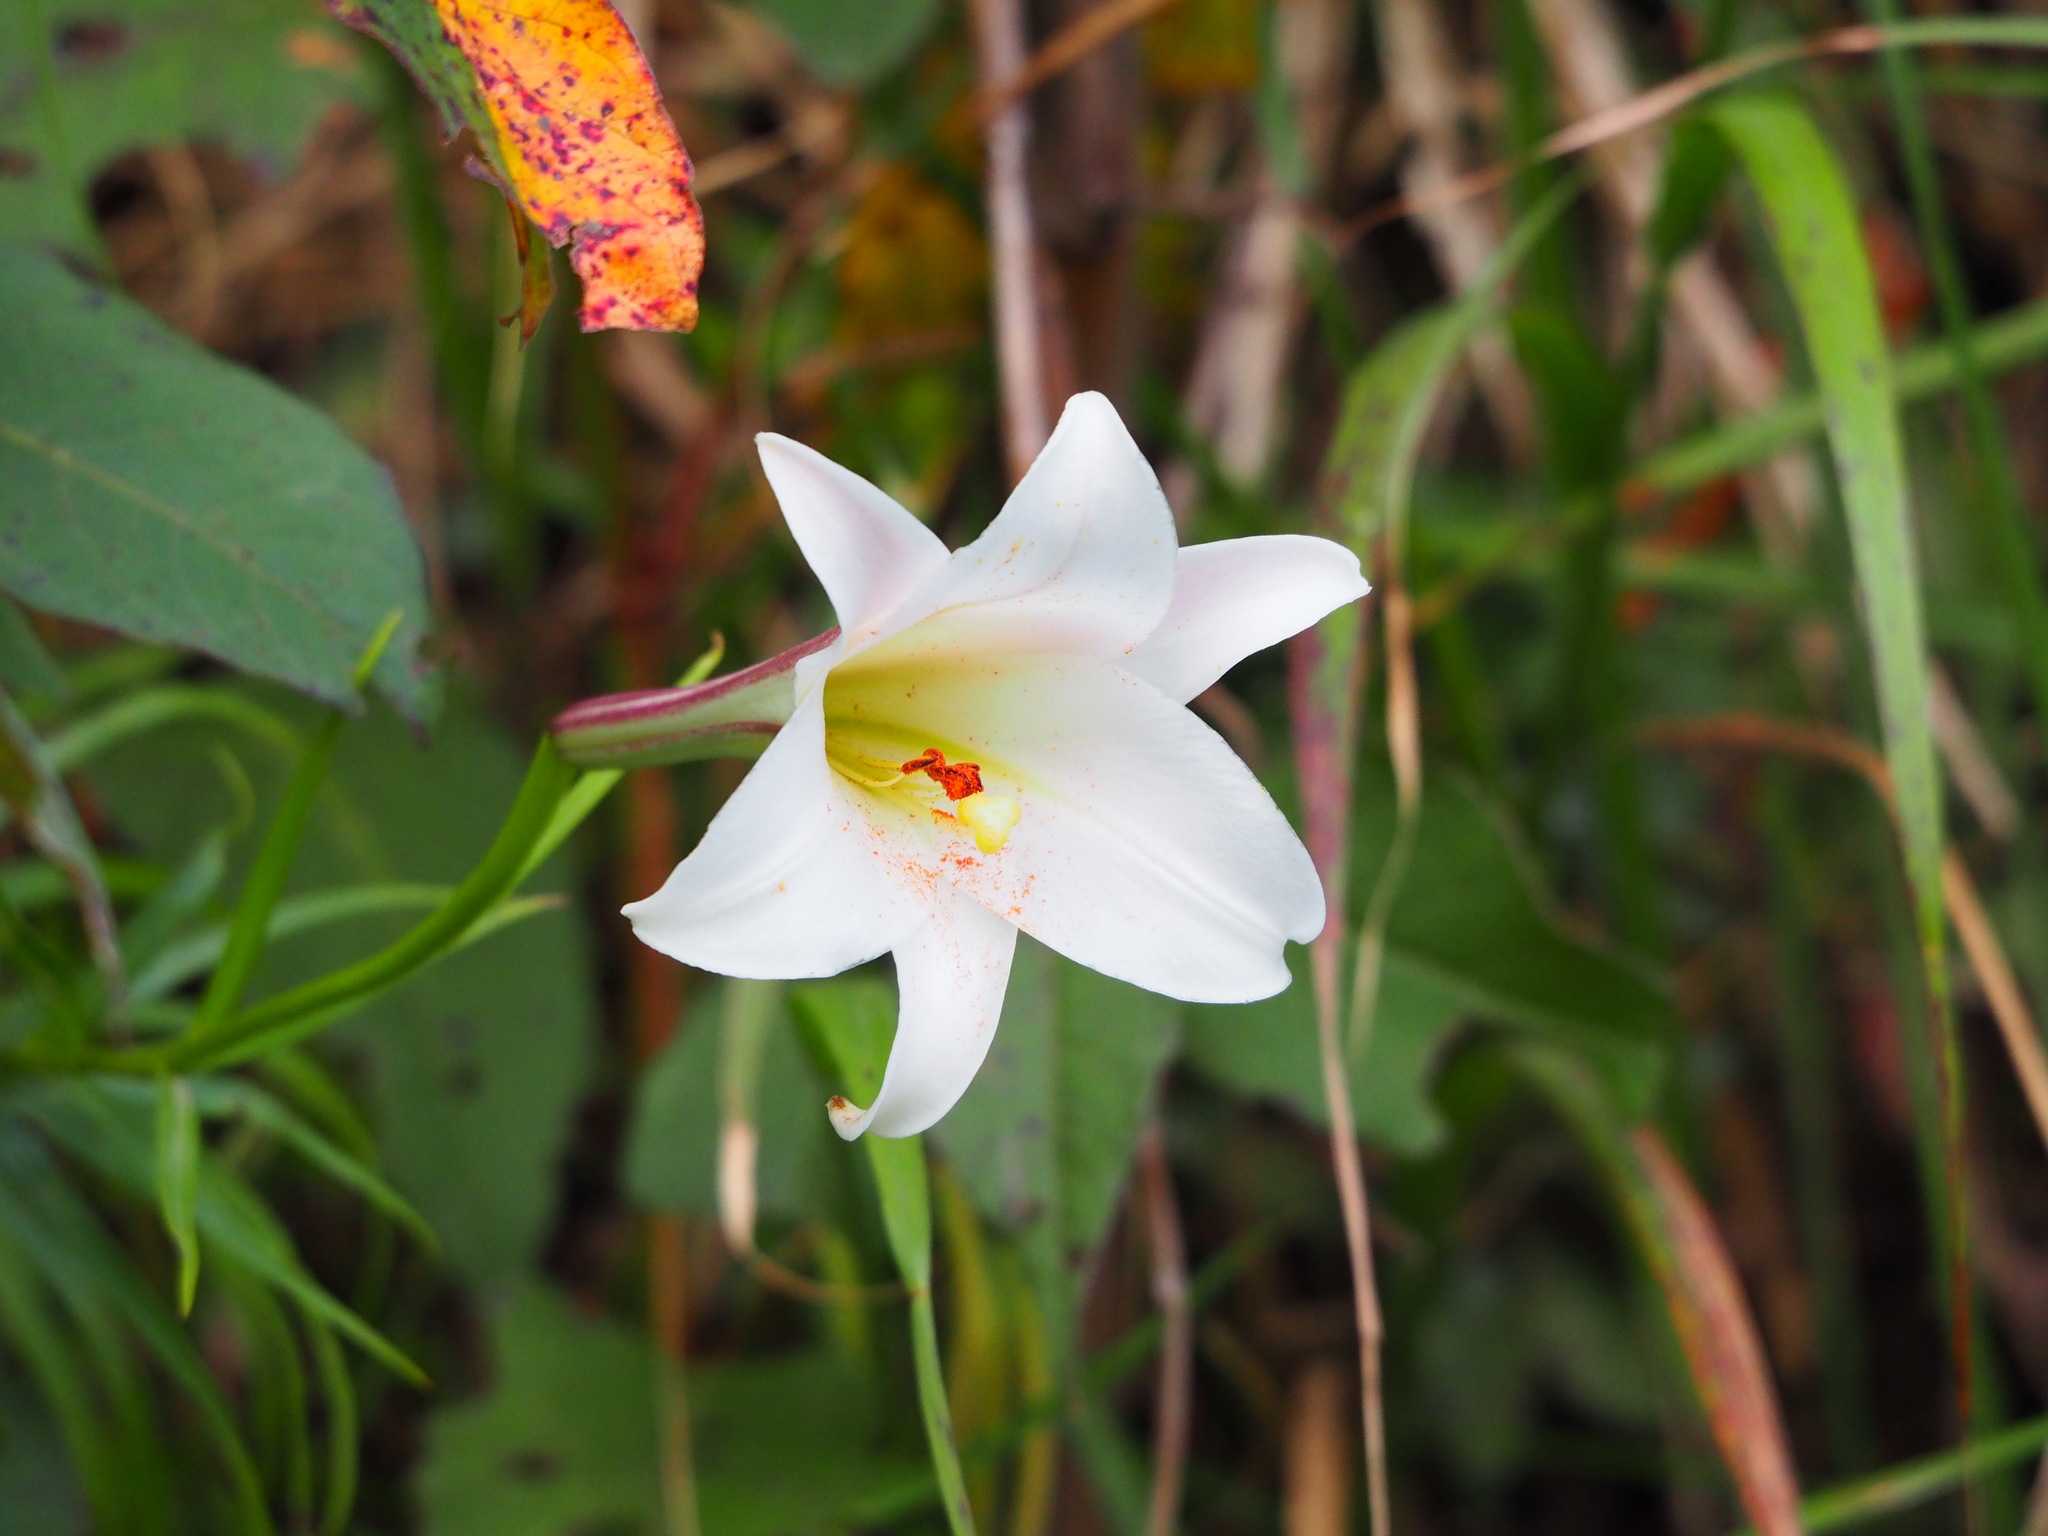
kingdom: Plantae
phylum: Tracheophyta
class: Liliopsida
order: Liliales
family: Liliaceae
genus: Lilium
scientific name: Lilium formosanum
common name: Formosa lily
